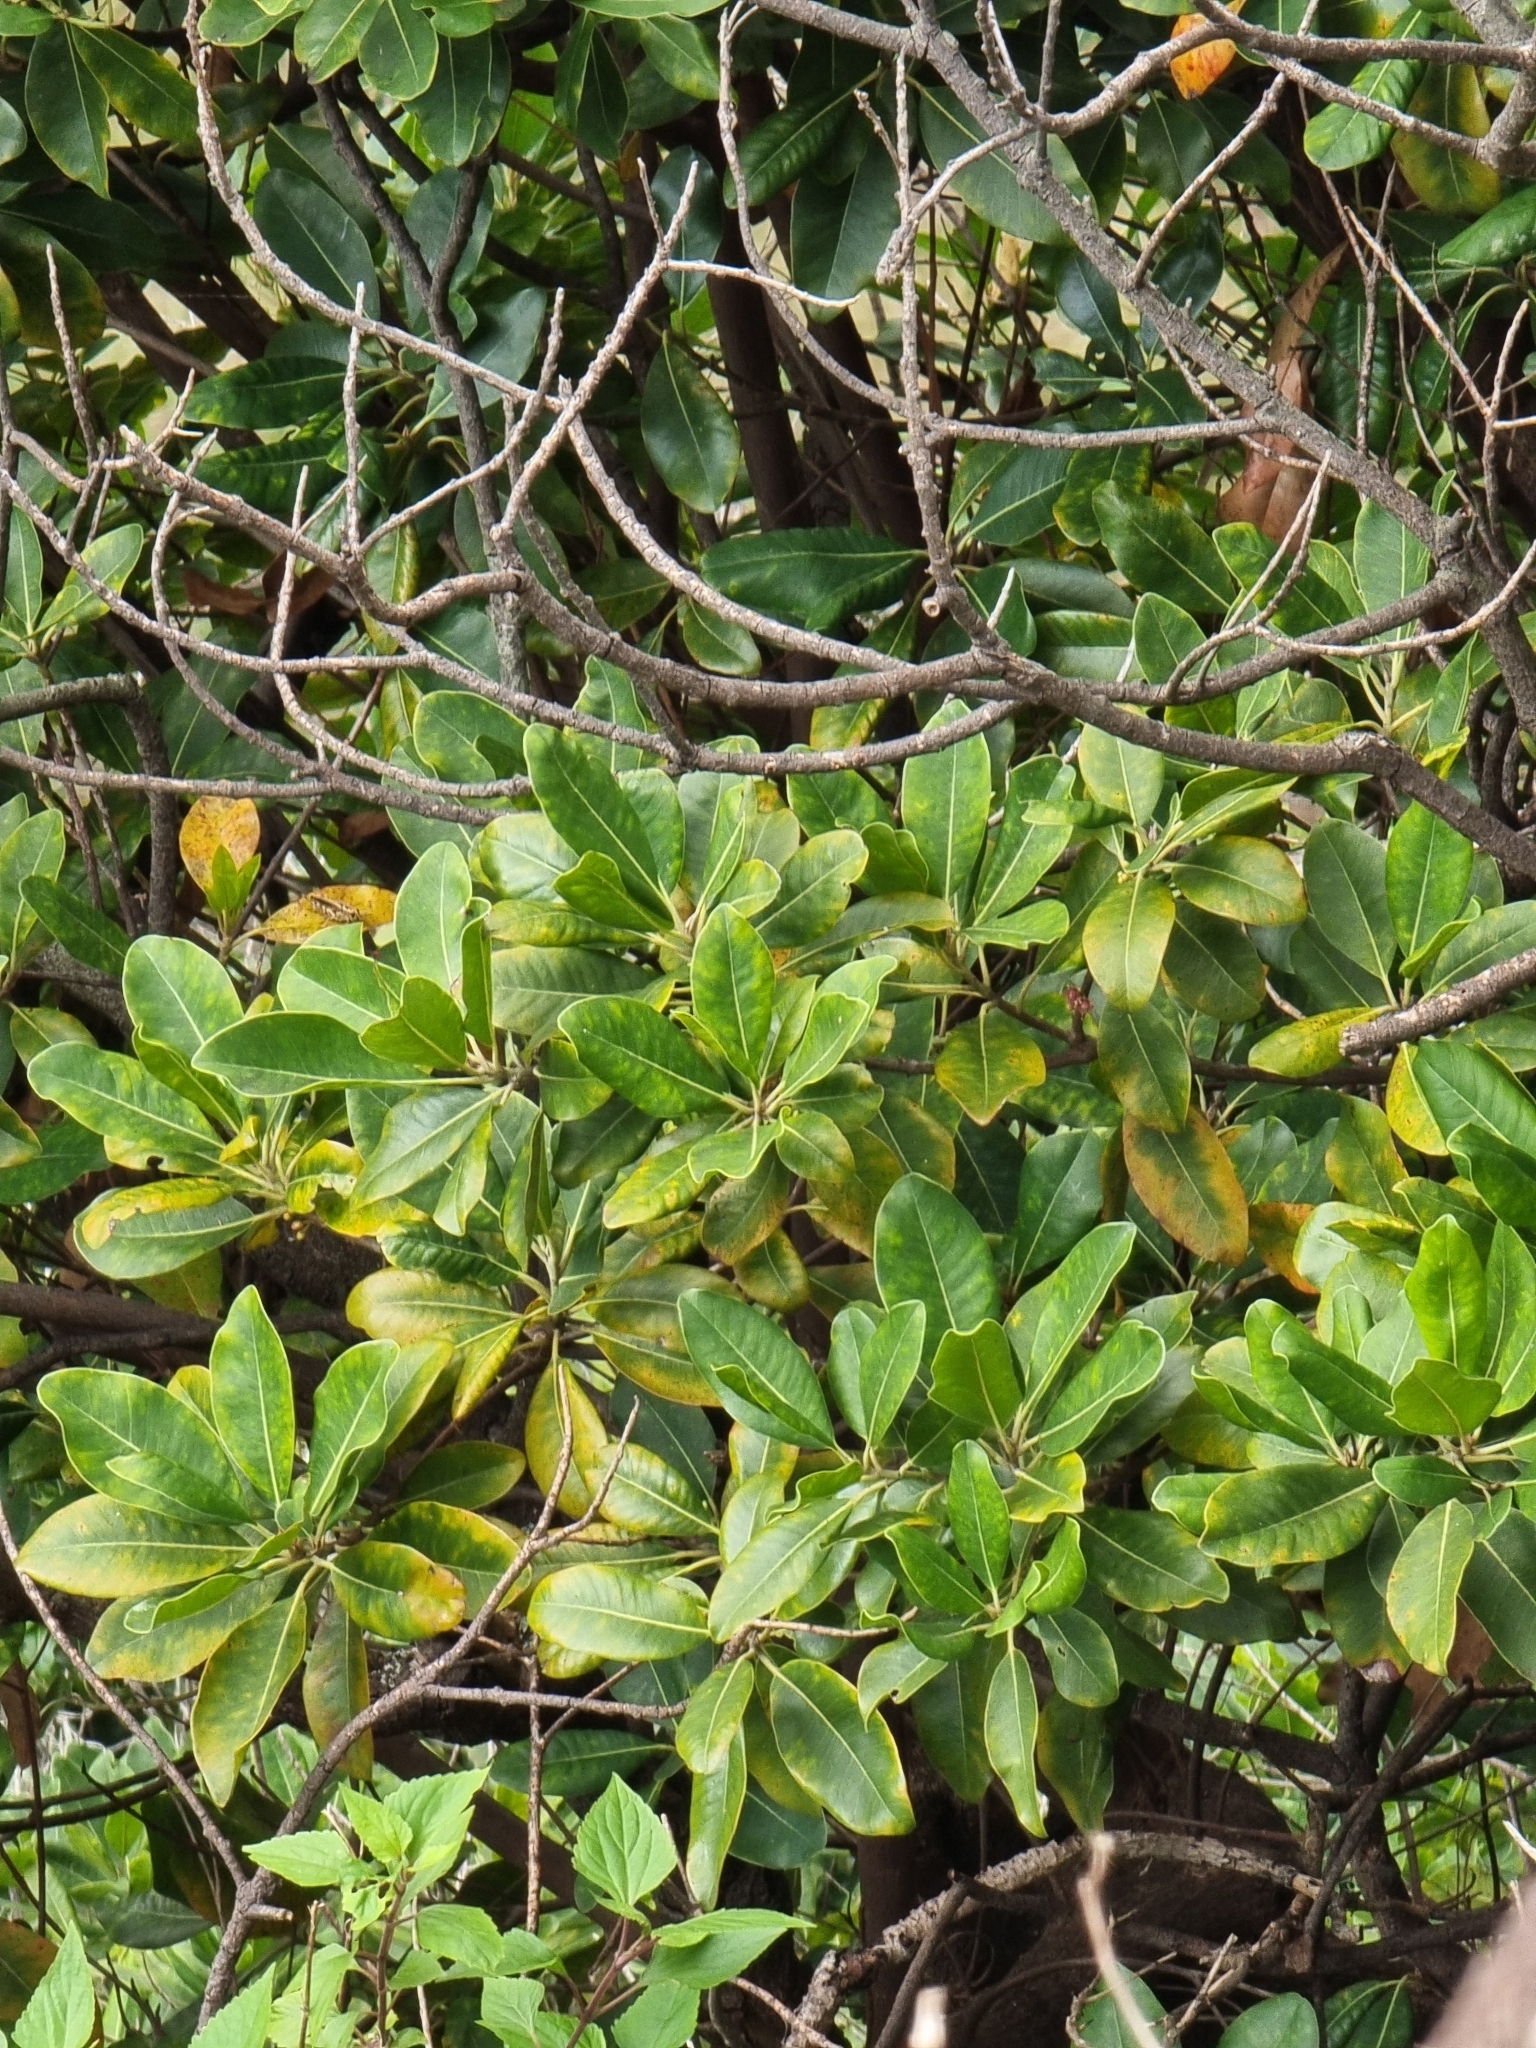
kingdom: Plantae
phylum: Tracheophyta
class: Magnoliopsida
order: Ericales
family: Sapotaceae
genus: Sideroxylon
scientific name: Sideroxylon mirmulans
